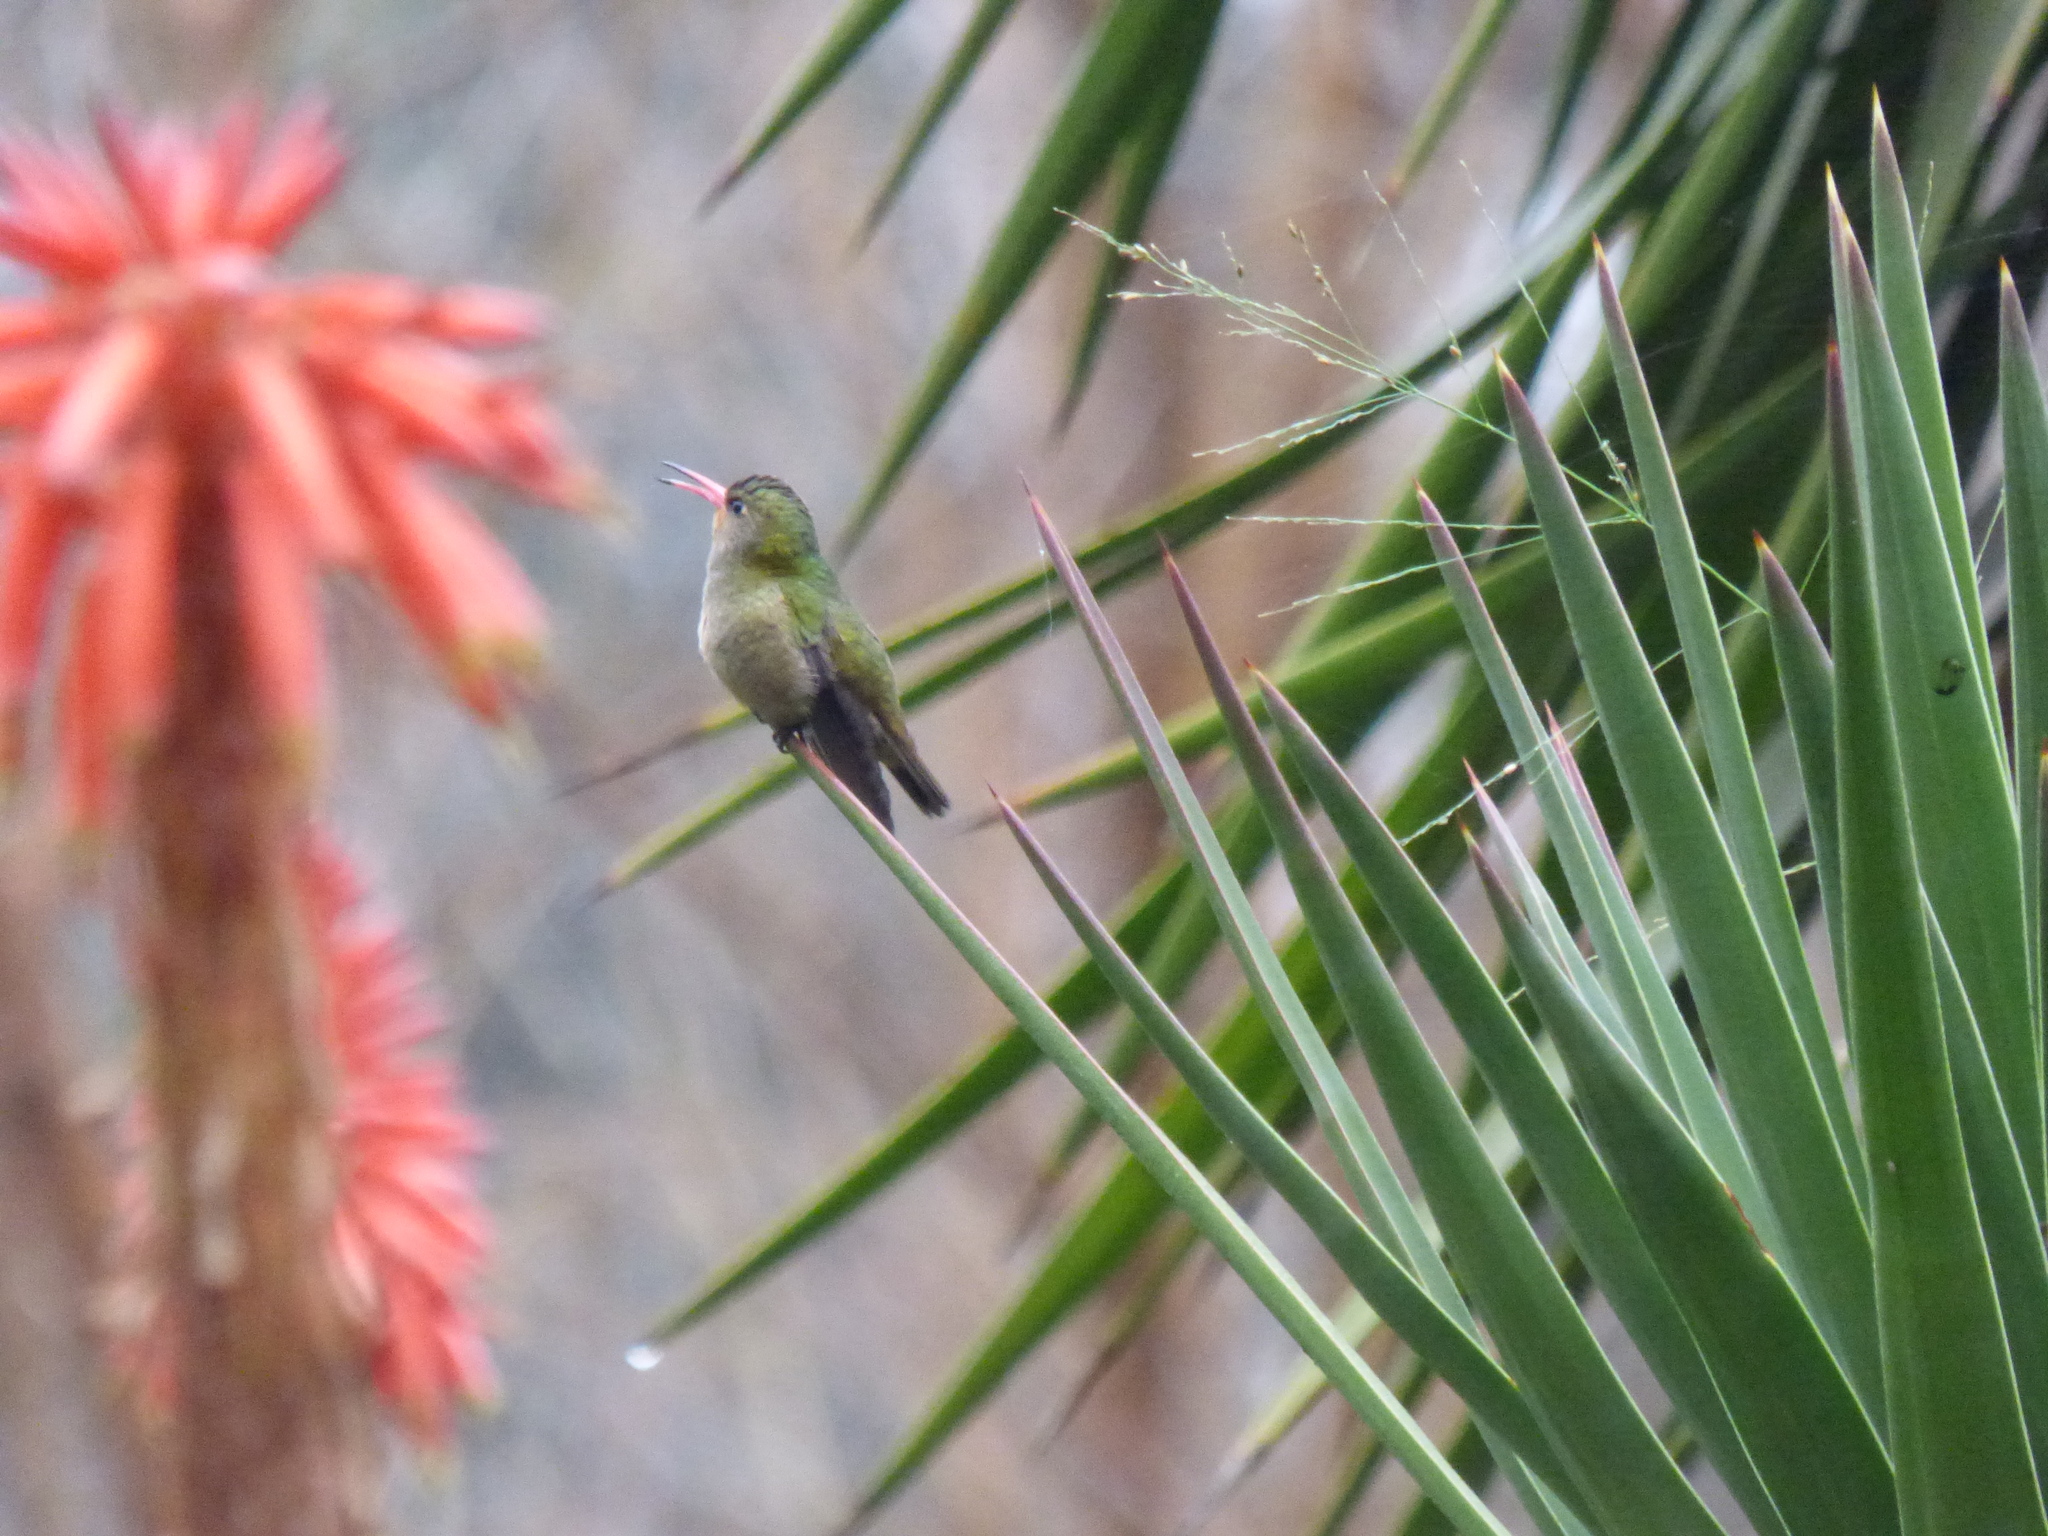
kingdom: Animalia
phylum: Chordata
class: Aves
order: Apodiformes
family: Trochilidae
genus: Hylocharis
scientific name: Hylocharis chrysura
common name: Gilded sapphire
